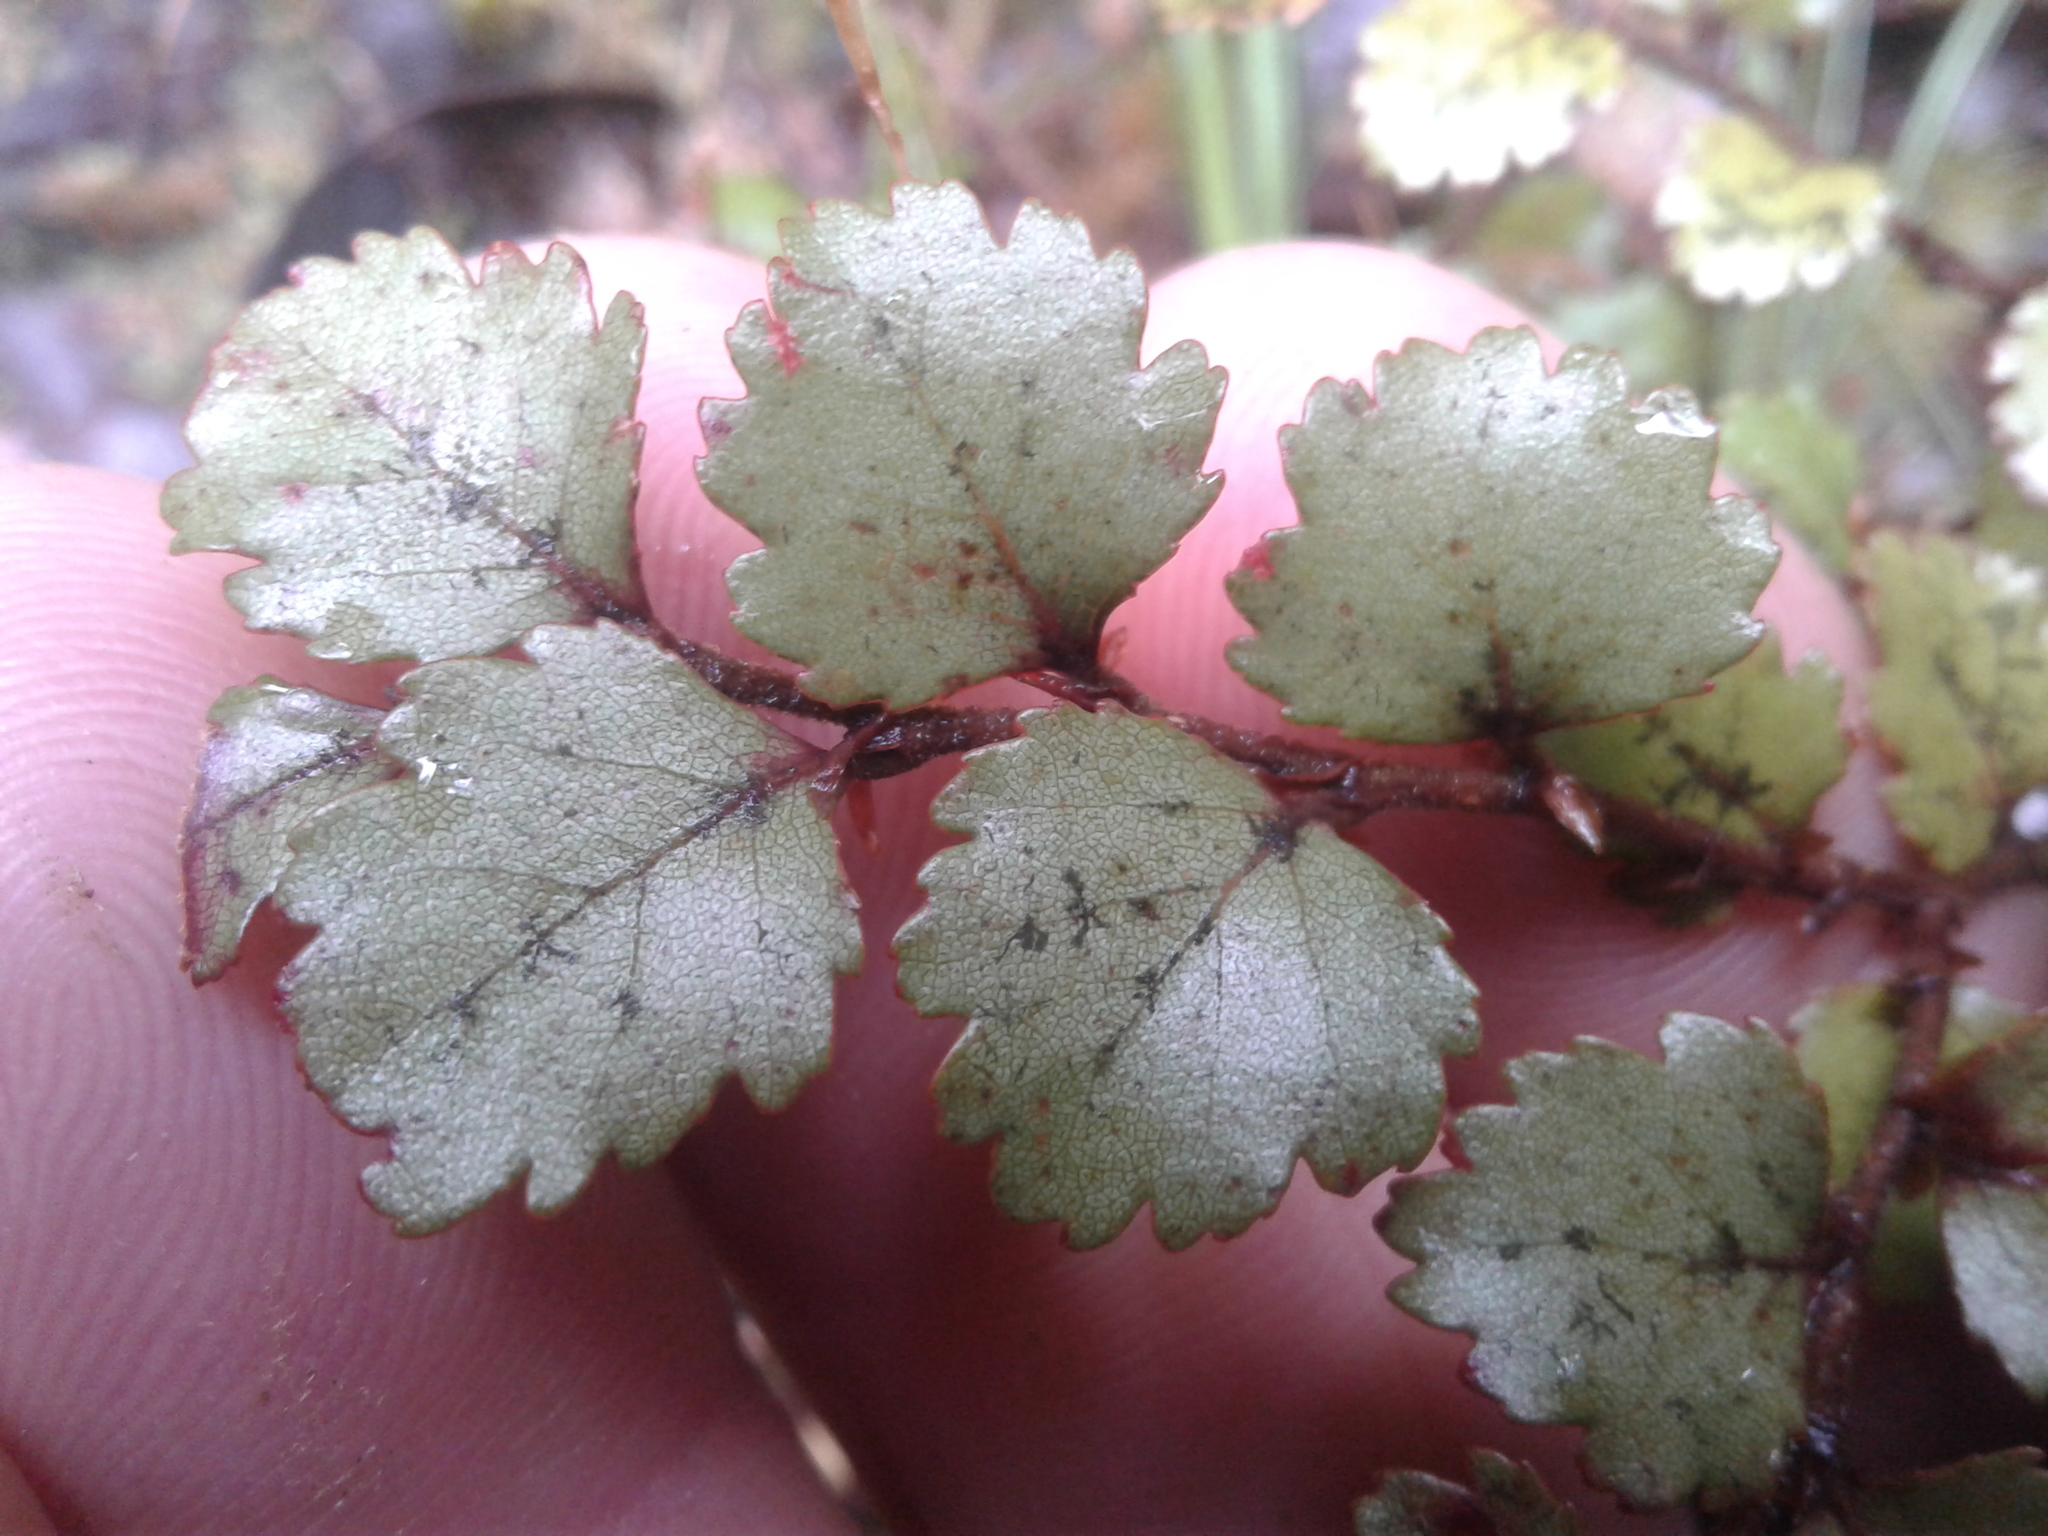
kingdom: Plantae
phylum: Tracheophyta
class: Magnoliopsida
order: Fagales
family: Nothofagaceae
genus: Nothofagus
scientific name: Nothofagus menziesii
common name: Silver beech
